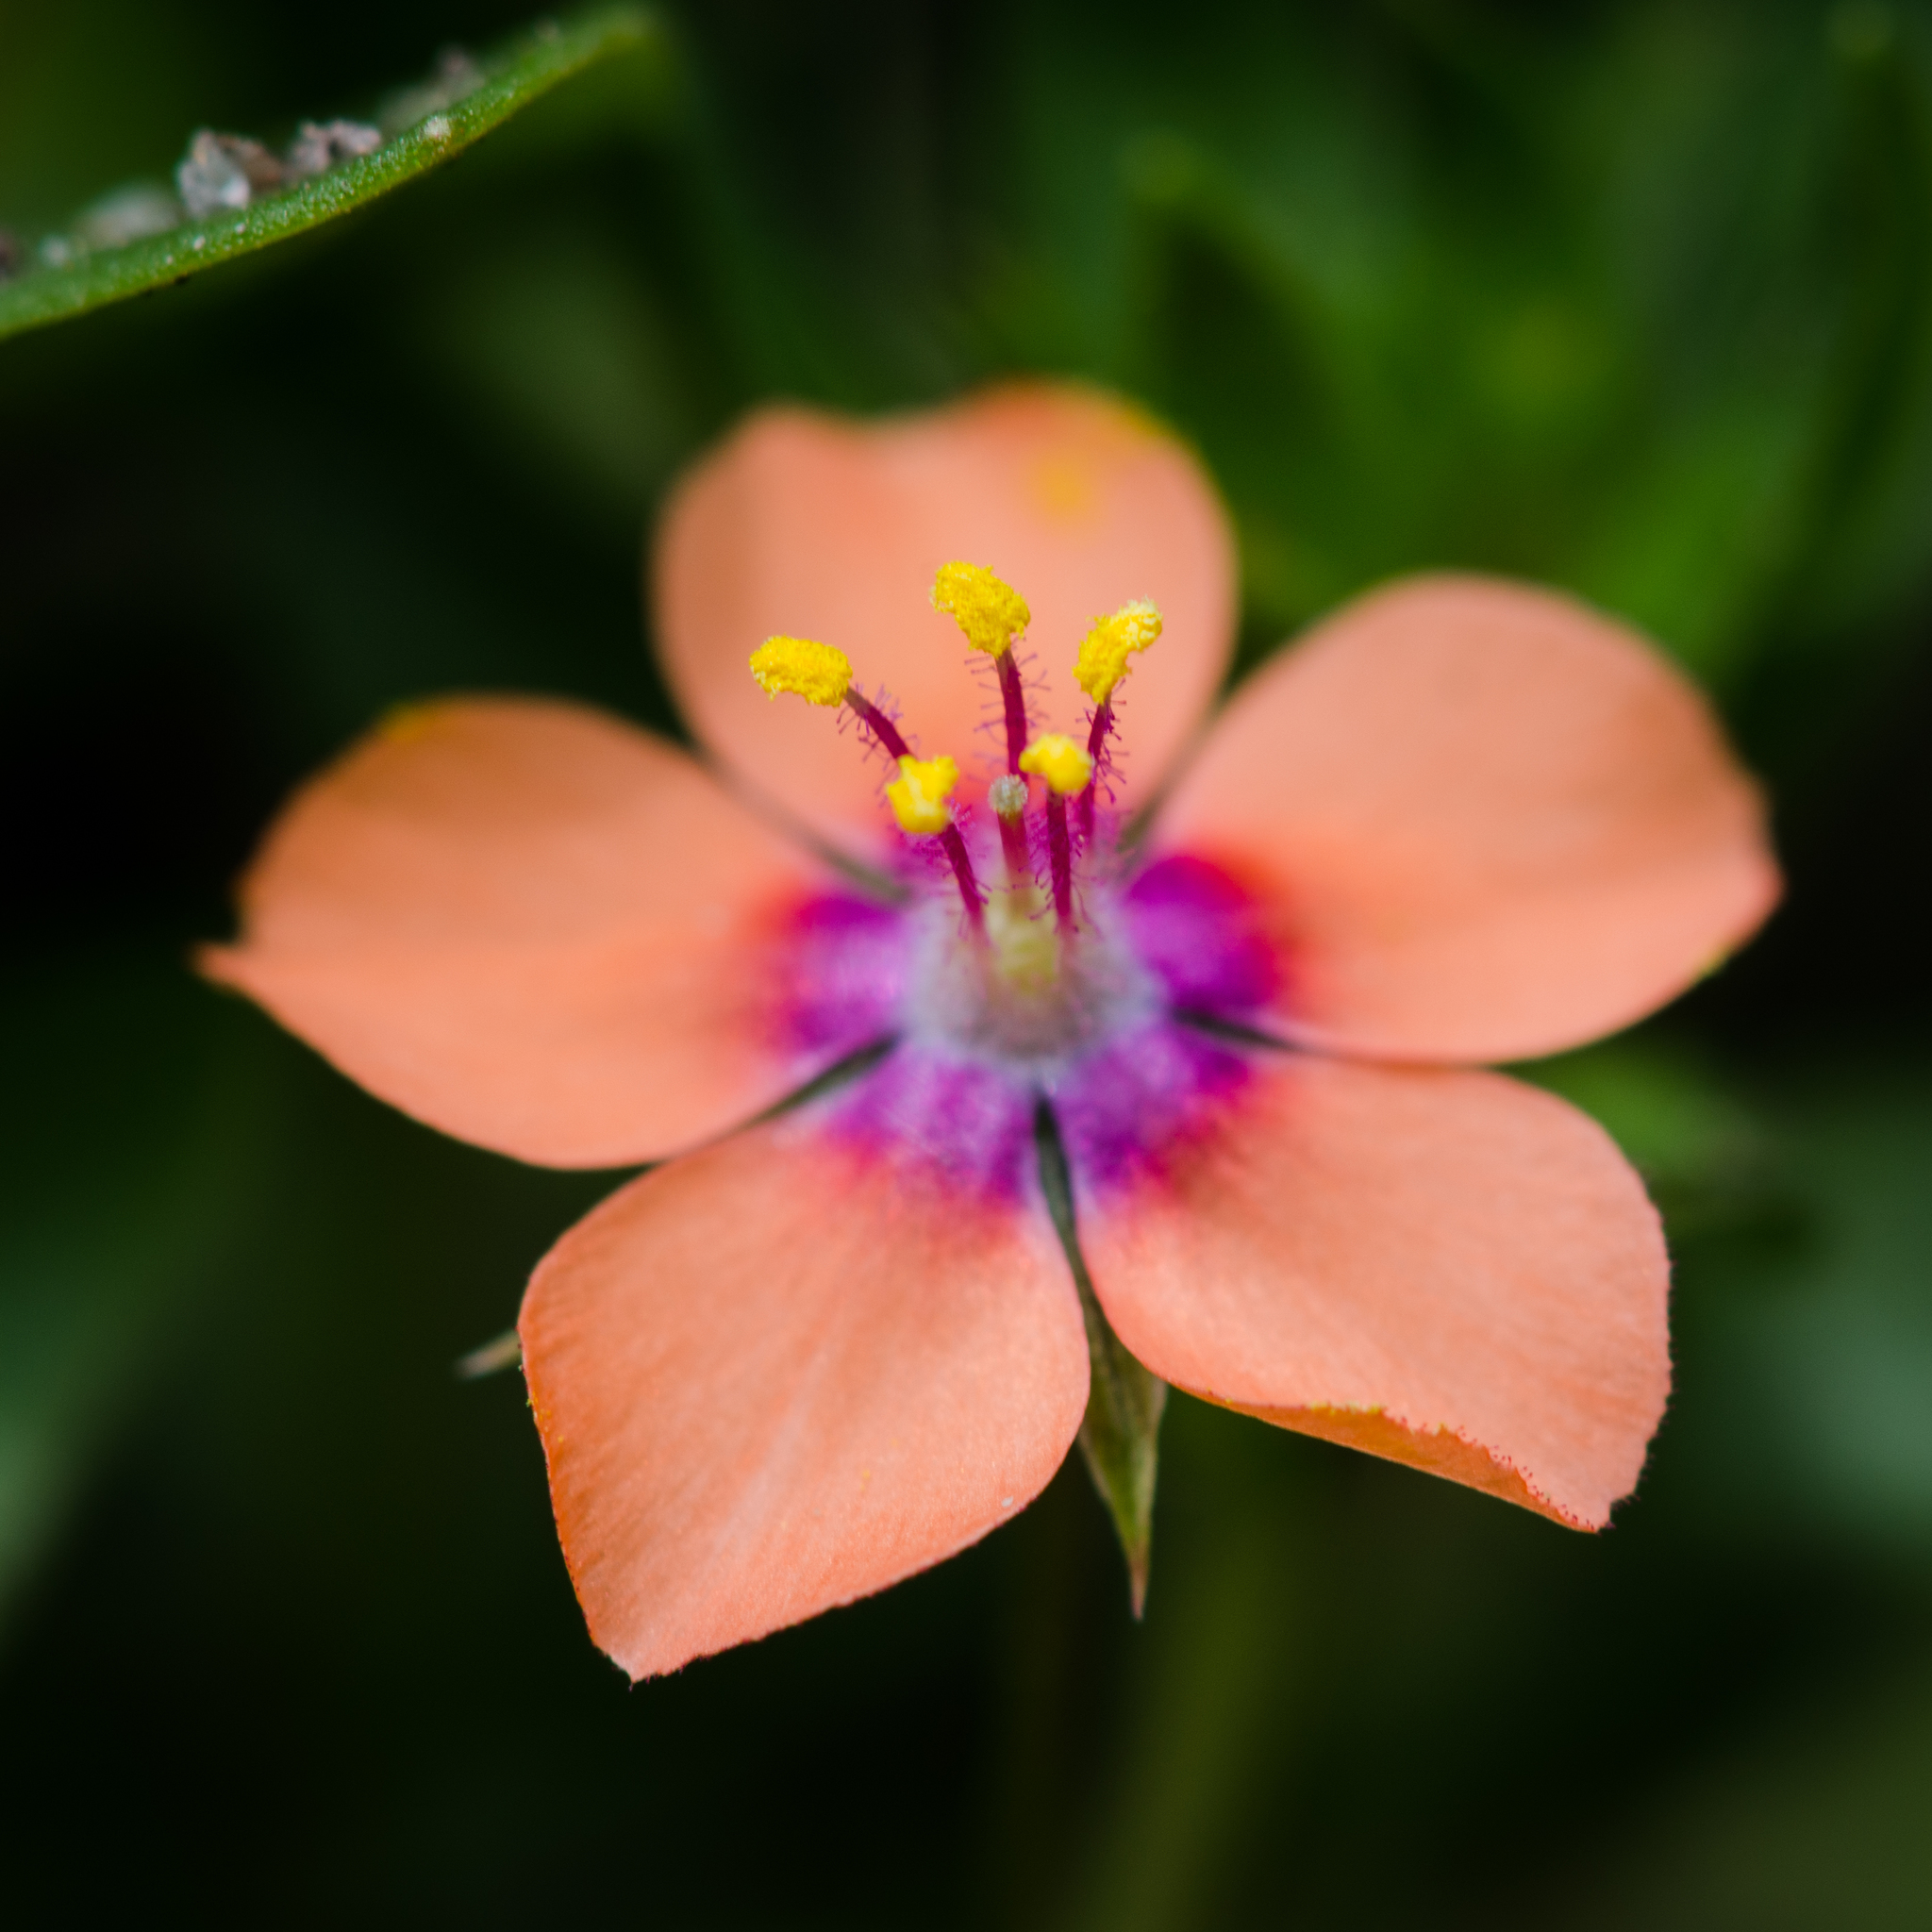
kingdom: Plantae
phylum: Tracheophyta
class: Magnoliopsida
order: Ericales
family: Primulaceae
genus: Lysimachia
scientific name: Lysimachia arvensis
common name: Scarlet pimpernel
